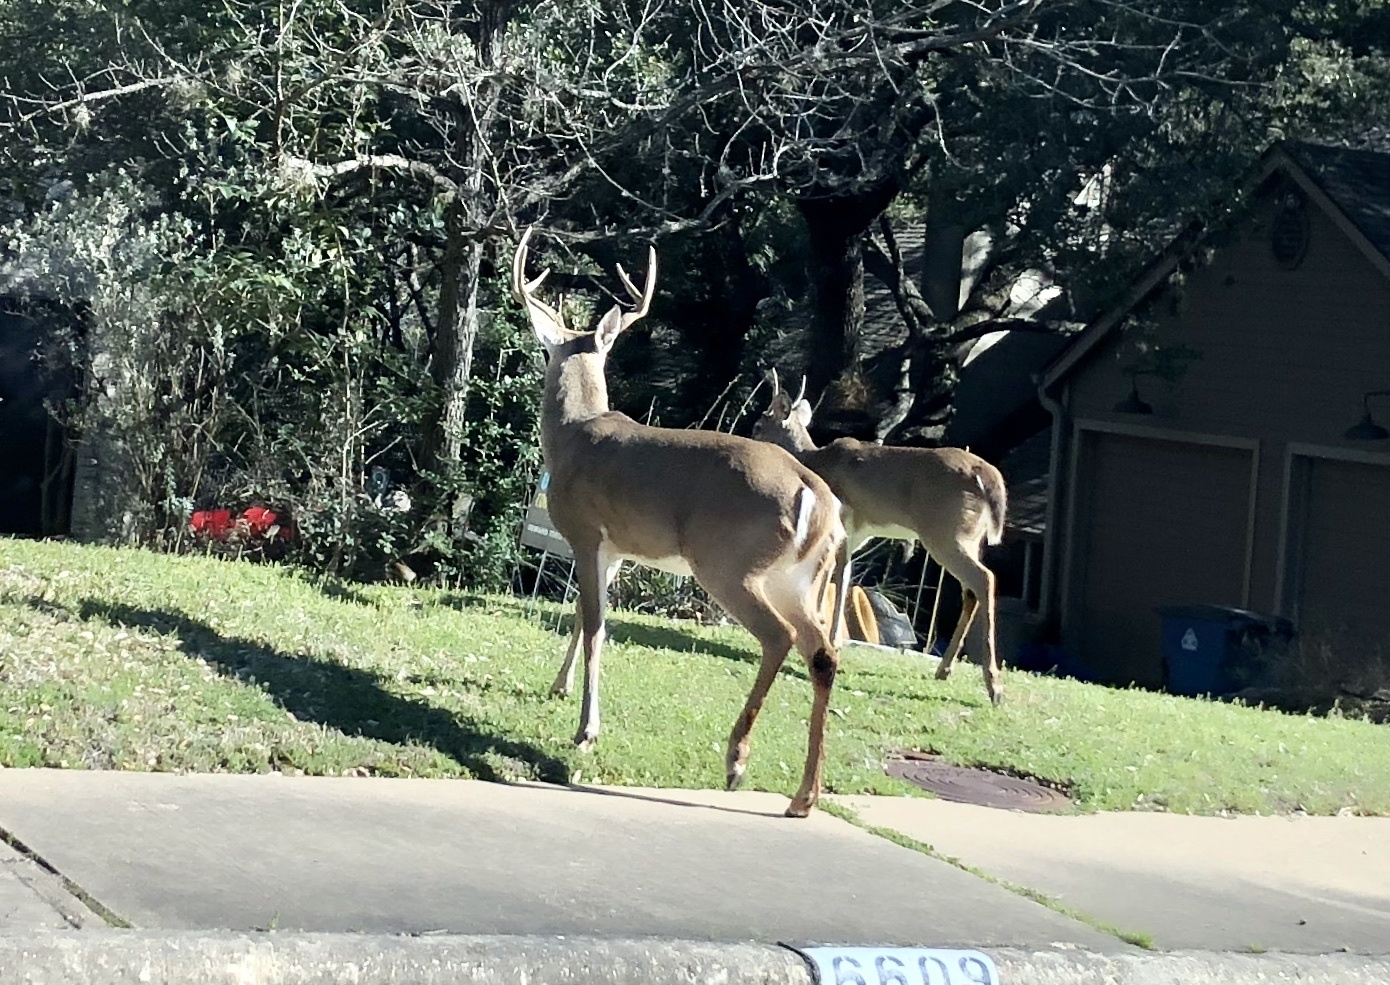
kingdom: Animalia
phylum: Chordata
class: Mammalia
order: Artiodactyla
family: Cervidae
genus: Odocoileus
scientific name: Odocoileus virginianus
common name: White-tailed deer
